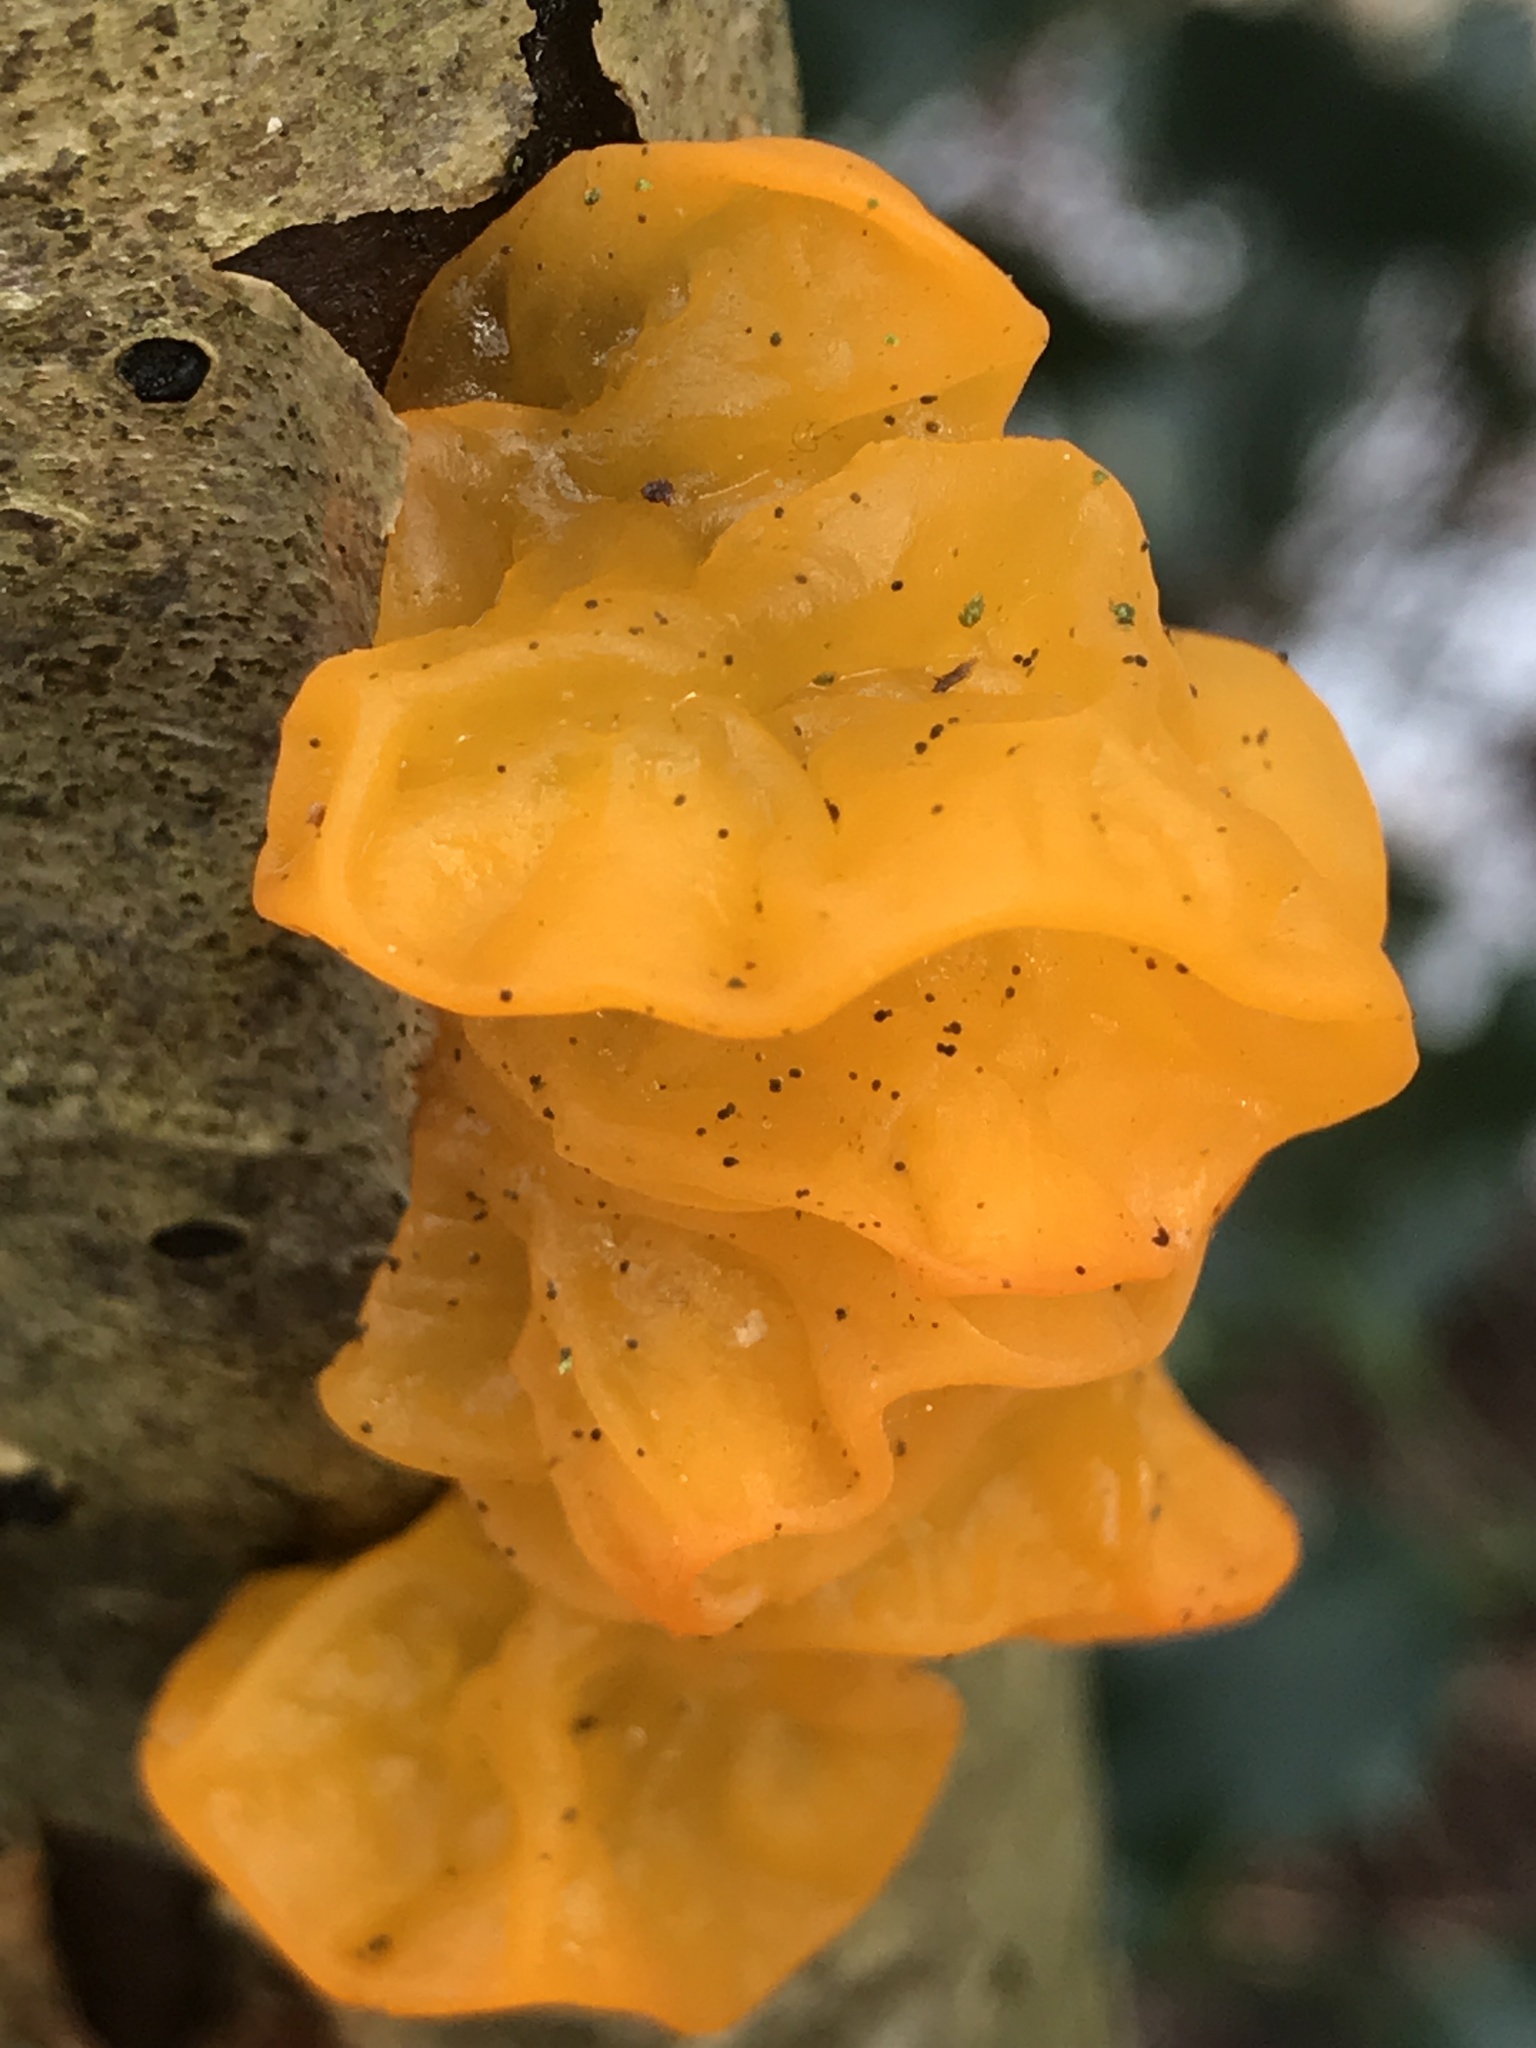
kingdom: Fungi
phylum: Basidiomycota
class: Tremellomycetes
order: Tremellales
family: Tremellaceae
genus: Tremella
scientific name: Tremella mesenterica
